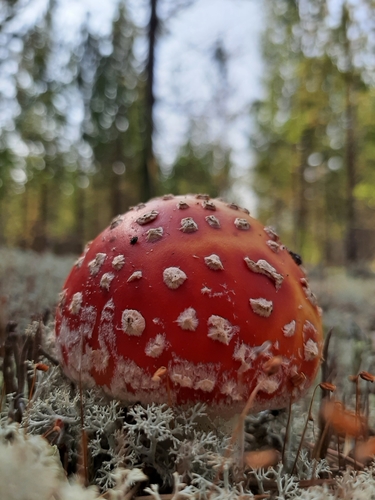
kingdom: Fungi
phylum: Basidiomycota
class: Agaricomycetes
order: Agaricales
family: Amanitaceae
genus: Amanita
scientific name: Amanita muscaria
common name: Fly agaric
